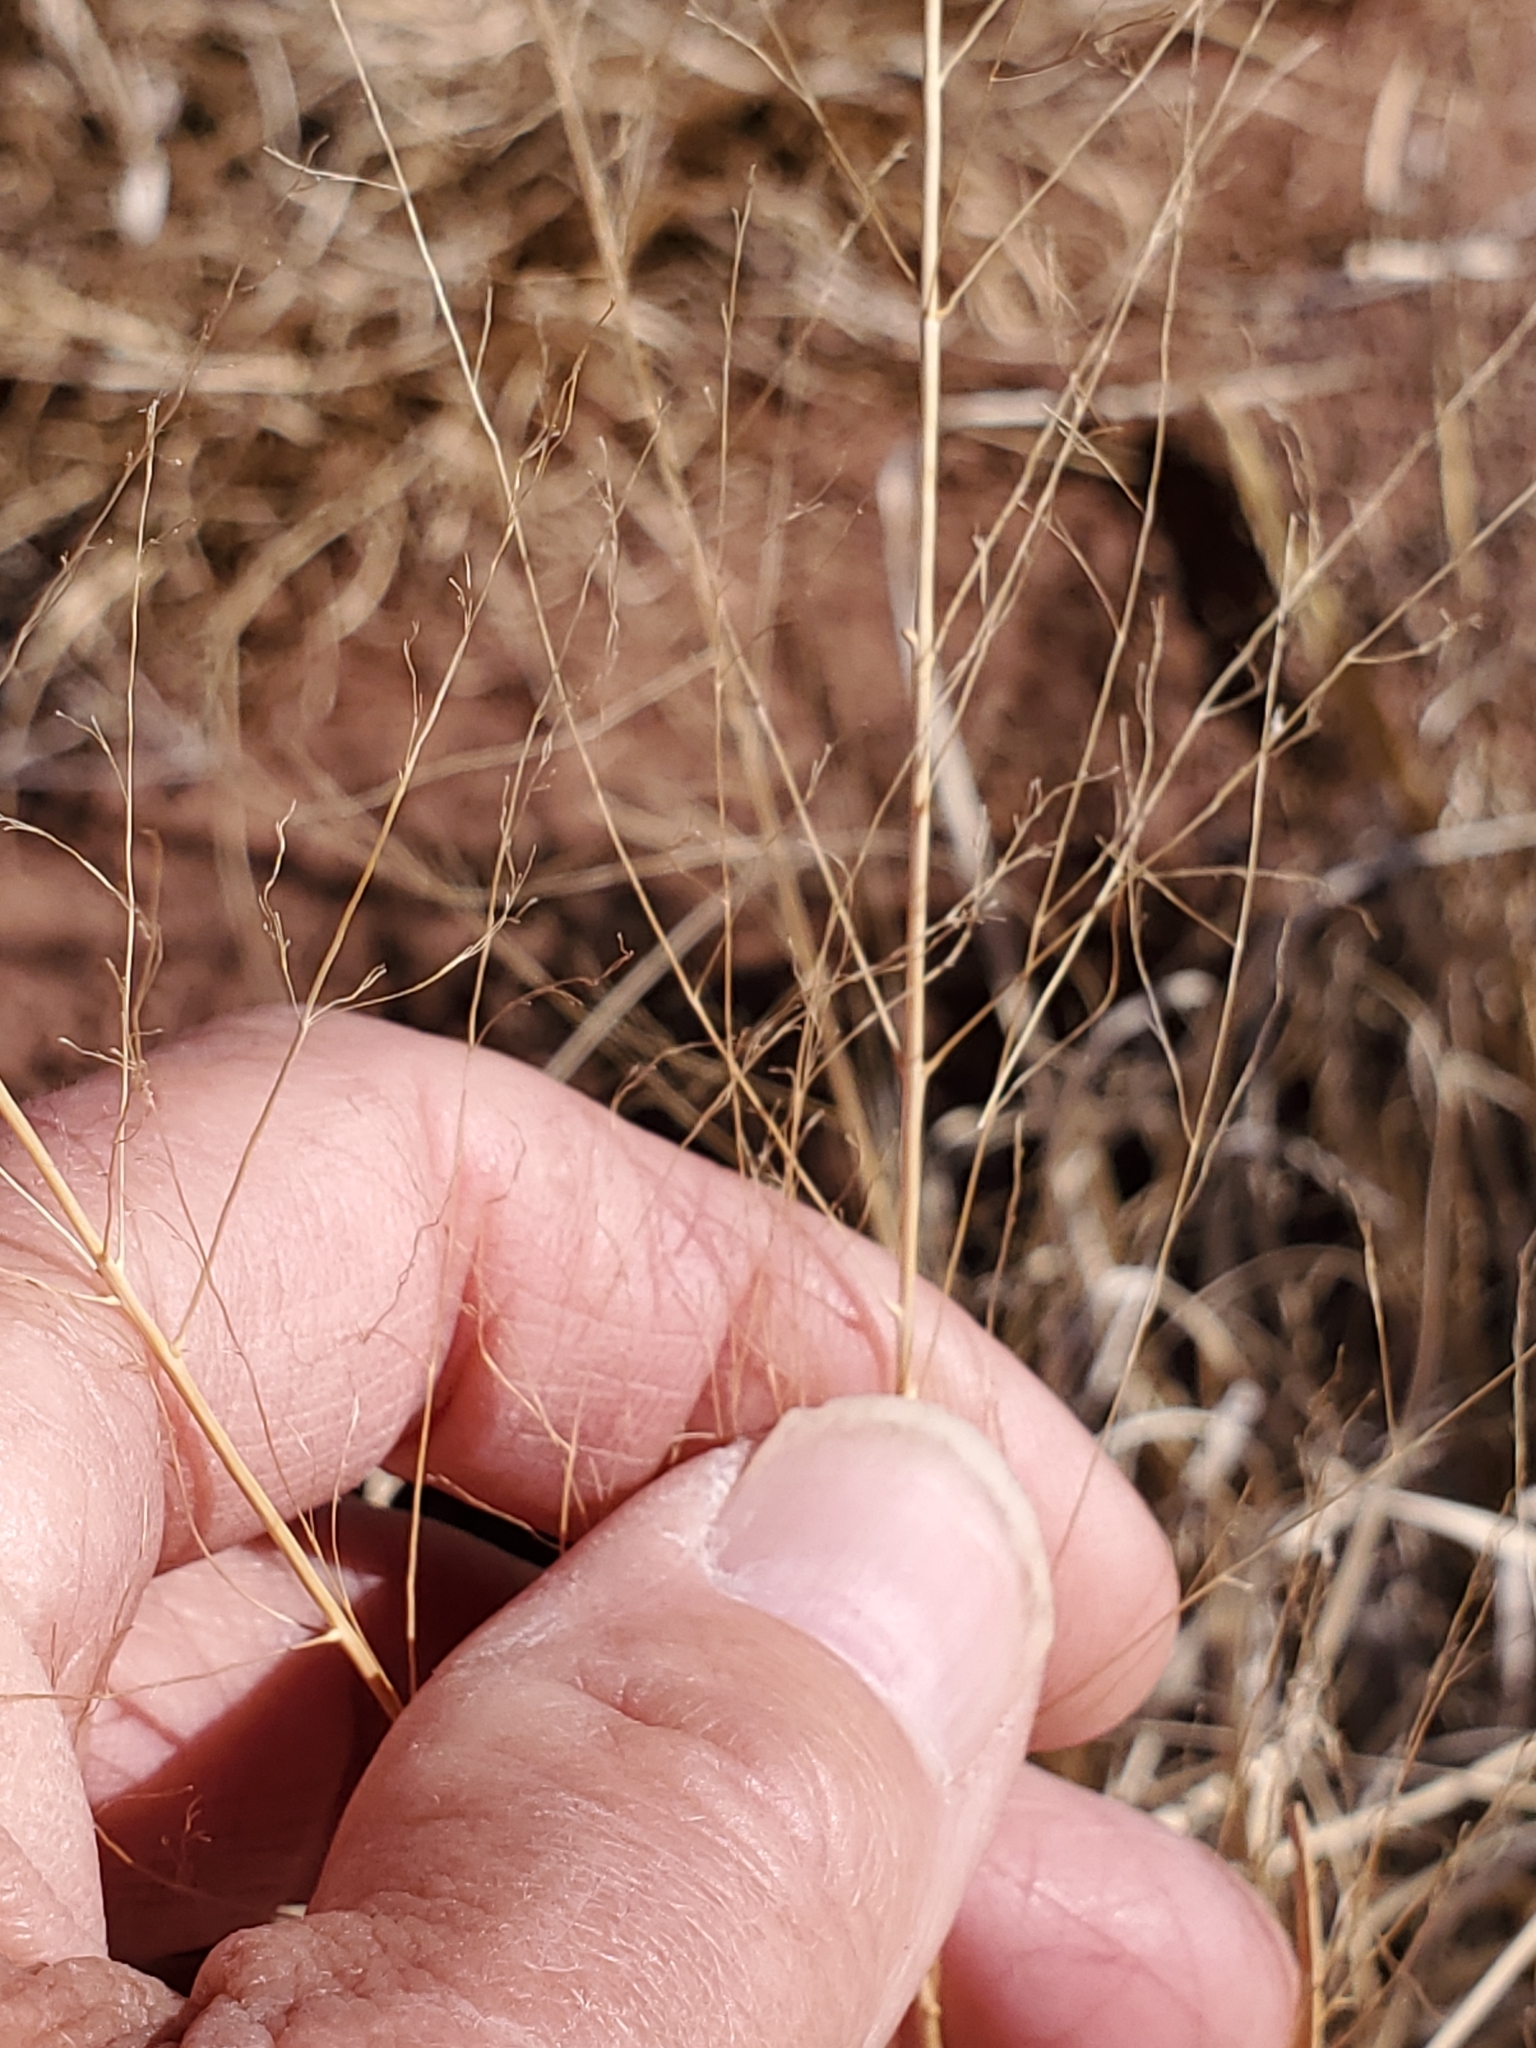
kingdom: Plantae
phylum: Tracheophyta
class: Liliopsida
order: Poales
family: Poaceae
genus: Sporobolus
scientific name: Sporobolus airoides
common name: Alkali sacaton
